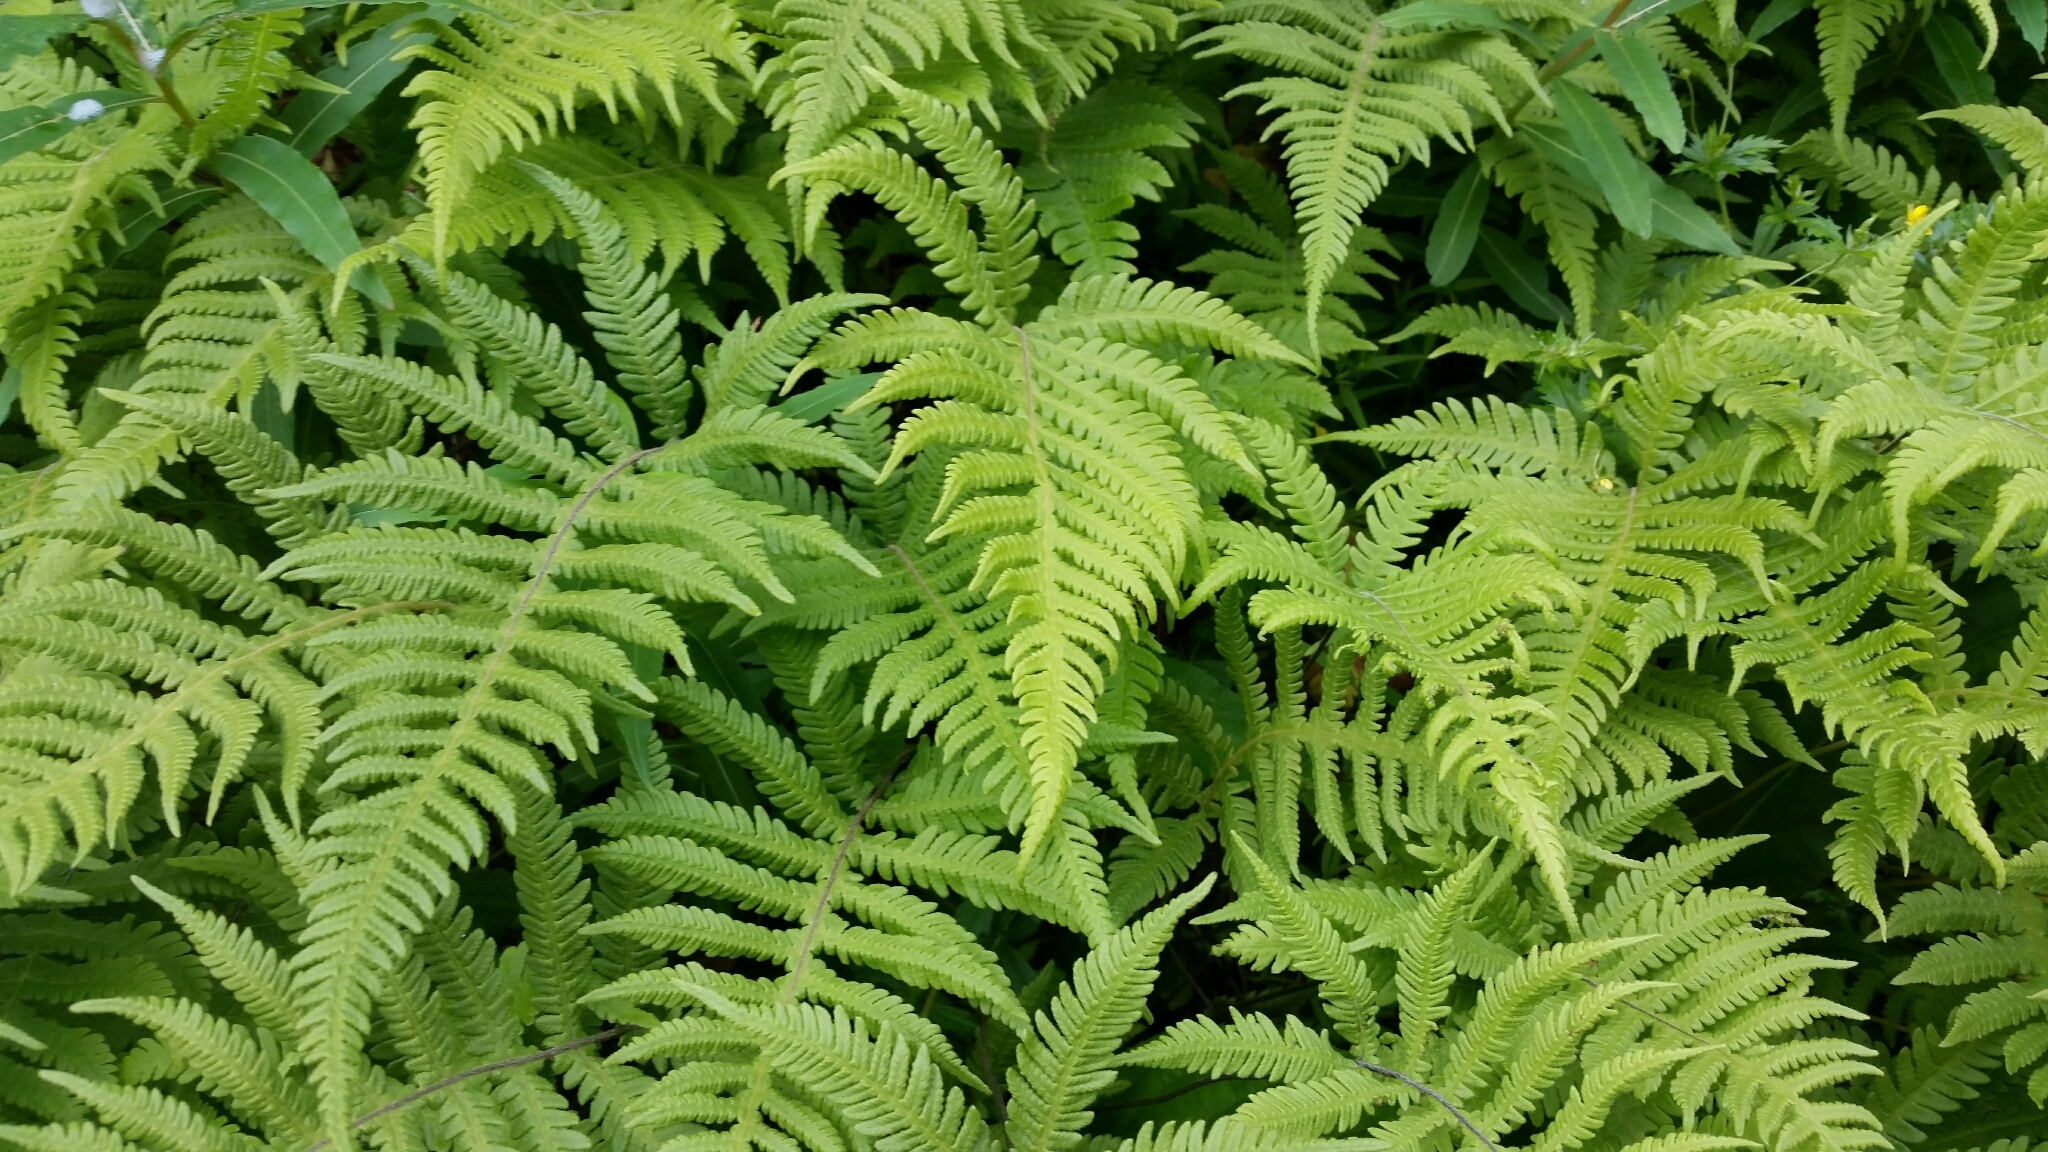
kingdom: Plantae
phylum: Tracheophyta
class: Polypodiopsida
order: Polypodiales
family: Thelypteridaceae
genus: Phegopteris
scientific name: Phegopteris connectilis
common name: Beech fern
